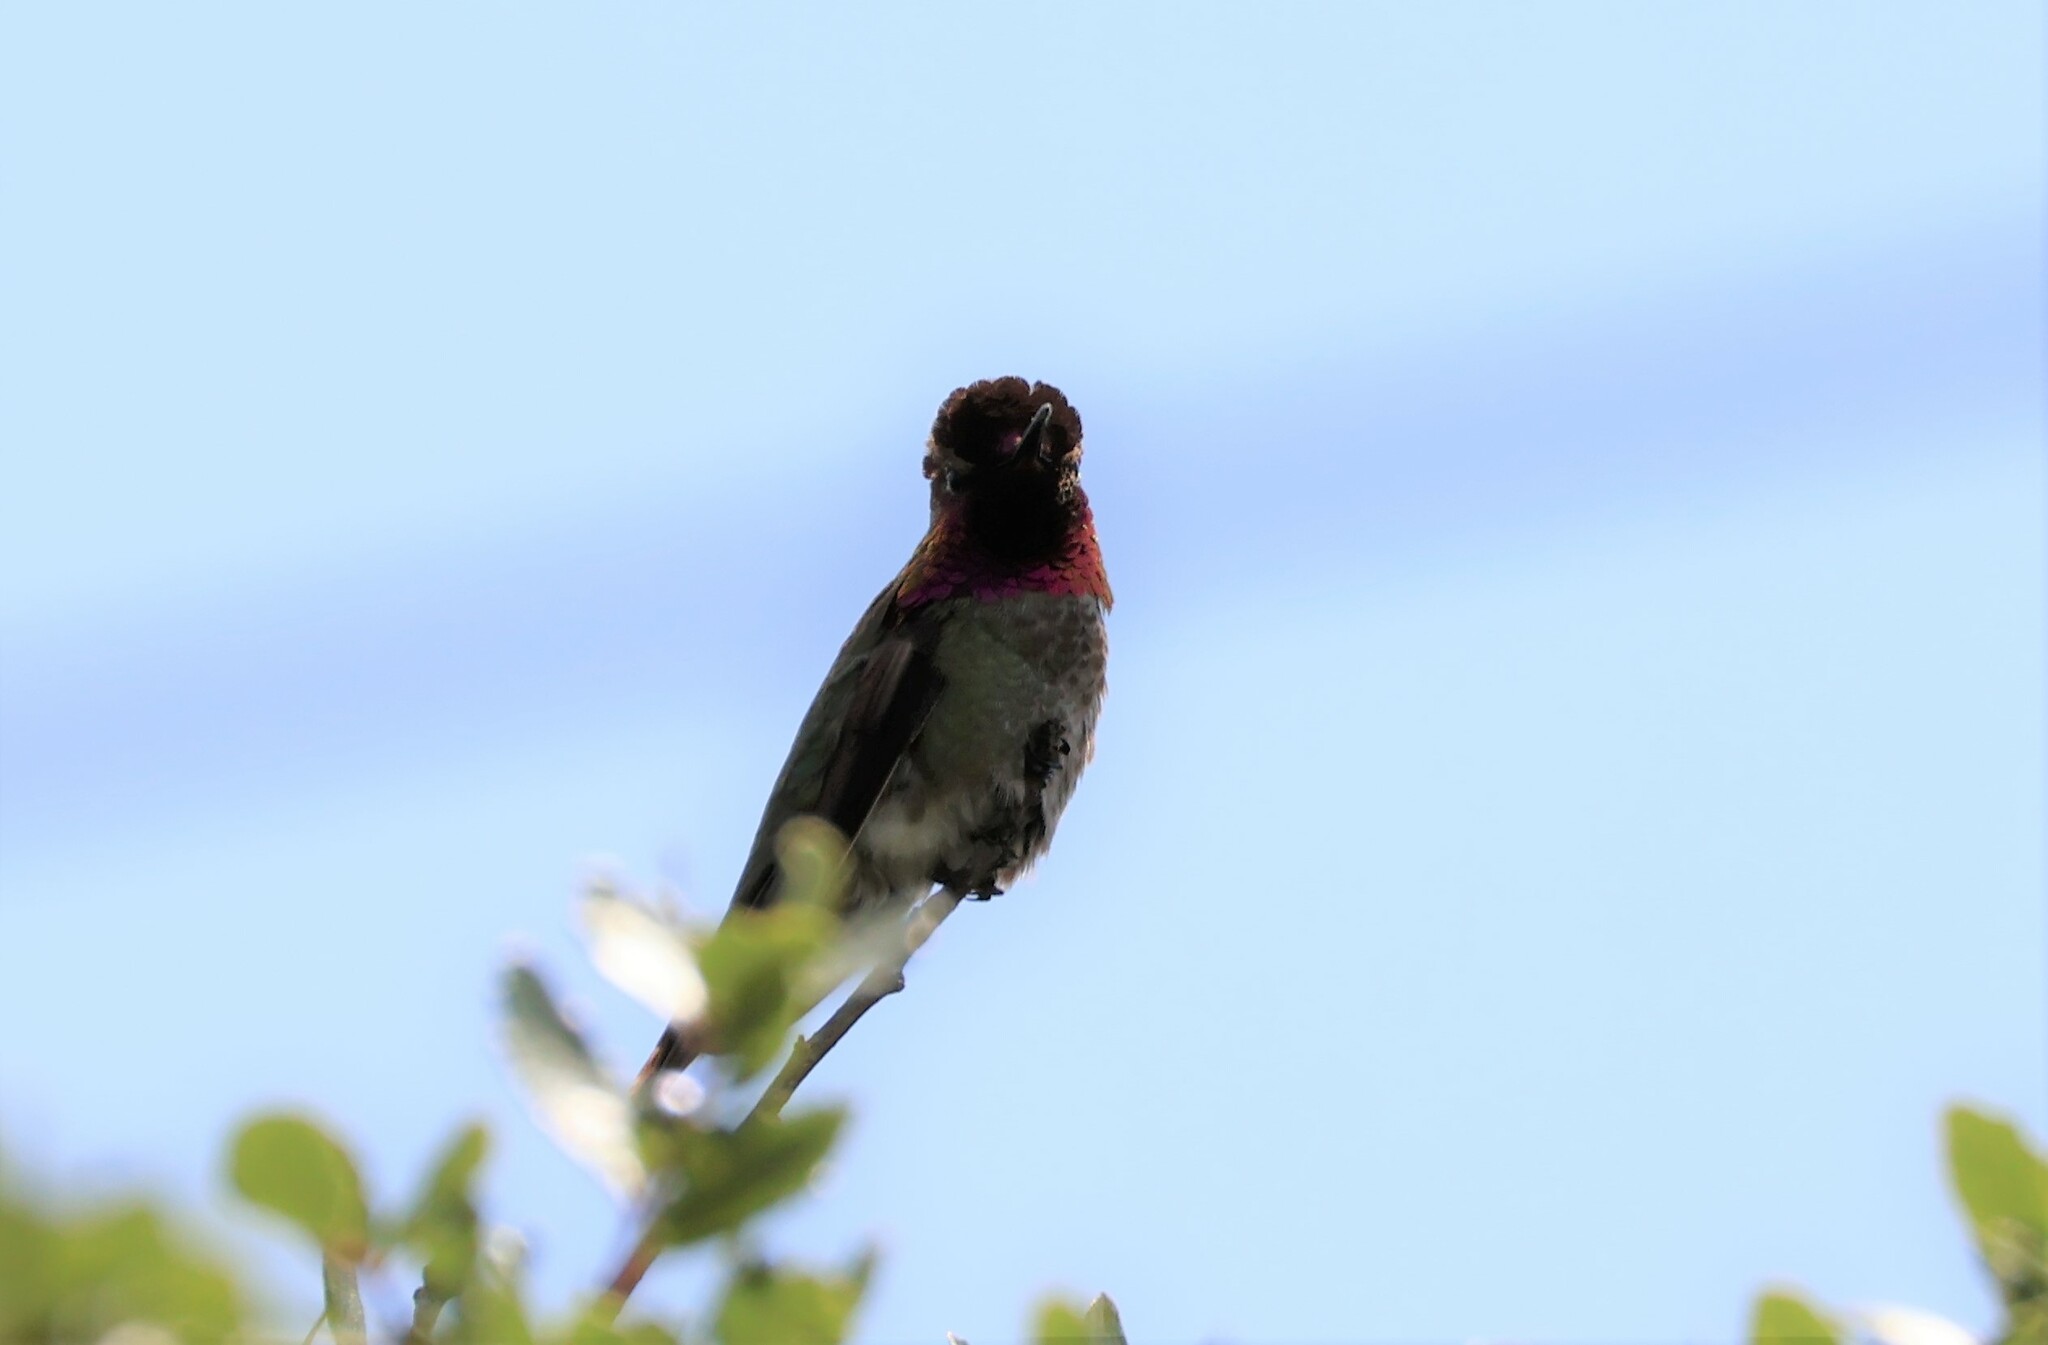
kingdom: Animalia
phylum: Chordata
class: Aves
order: Apodiformes
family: Trochilidae
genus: Calypte
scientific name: Calypte anna
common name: Anna's hummingbird
